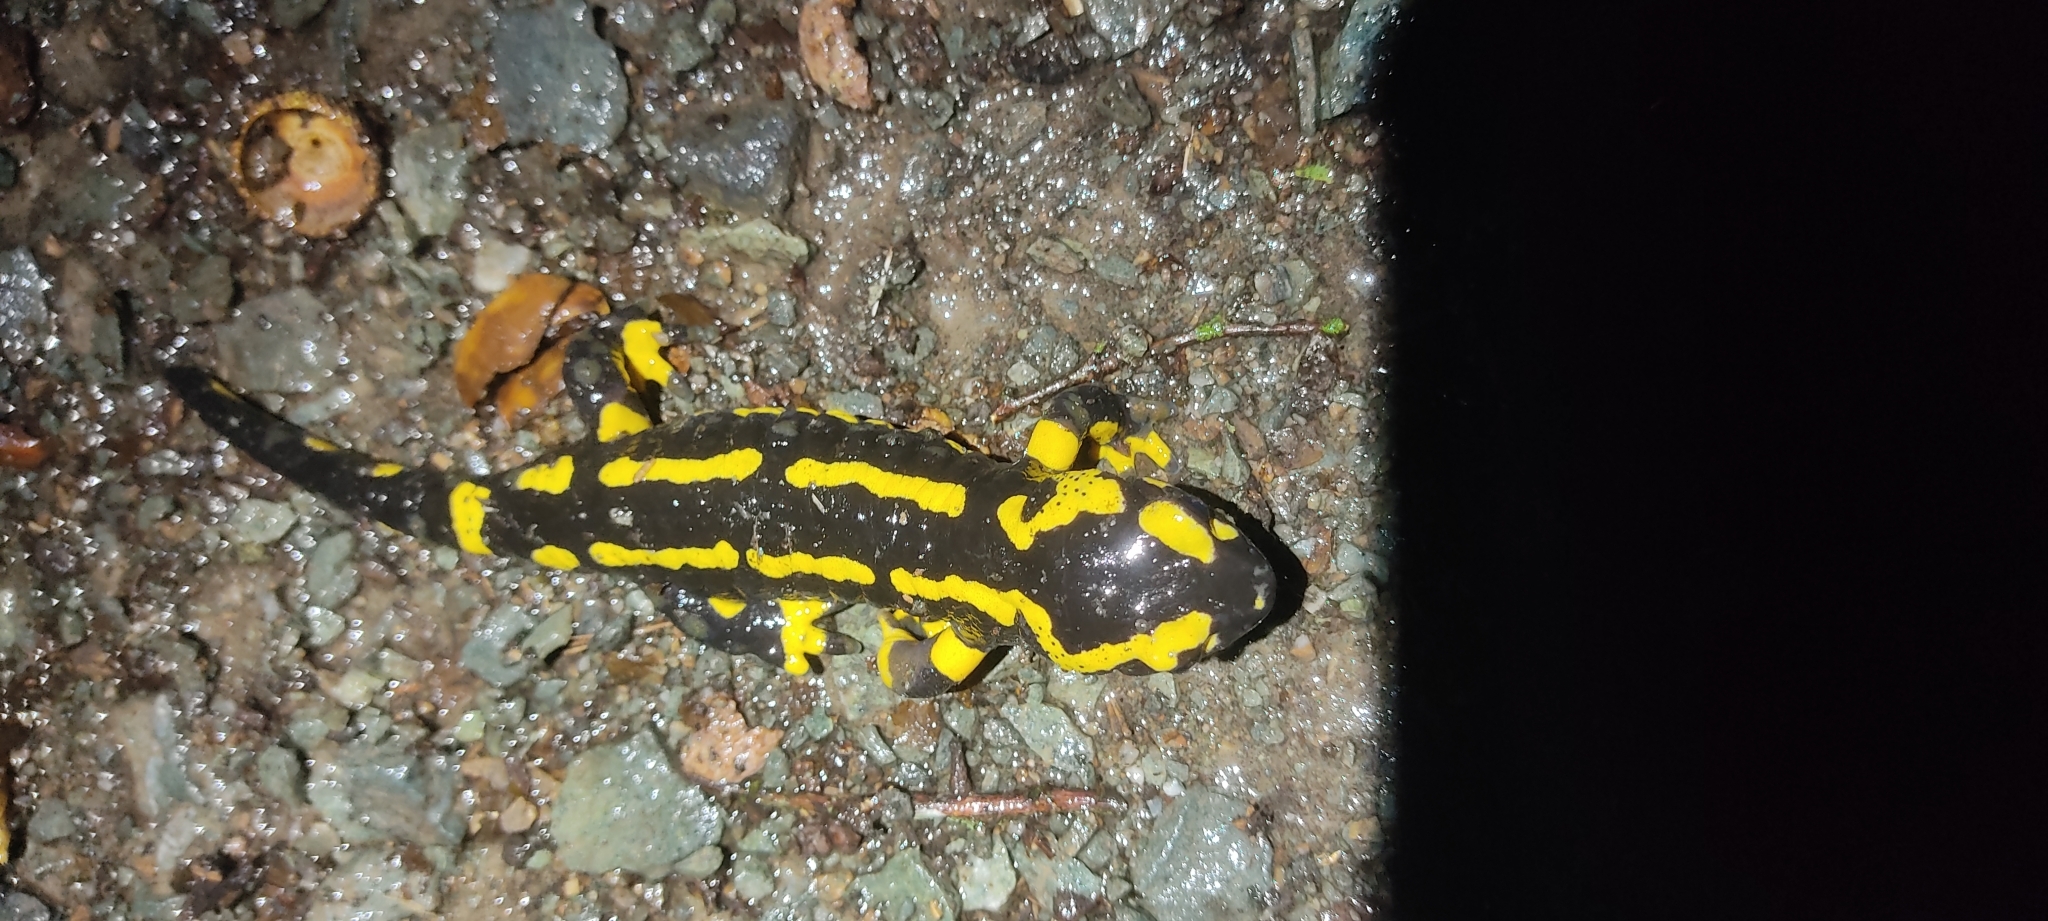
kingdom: Animalia
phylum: Chordata
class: Amphibia
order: Caudata
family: Salamandridae
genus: Salamandra
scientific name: Salamandra salamandra
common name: Fire salamander
